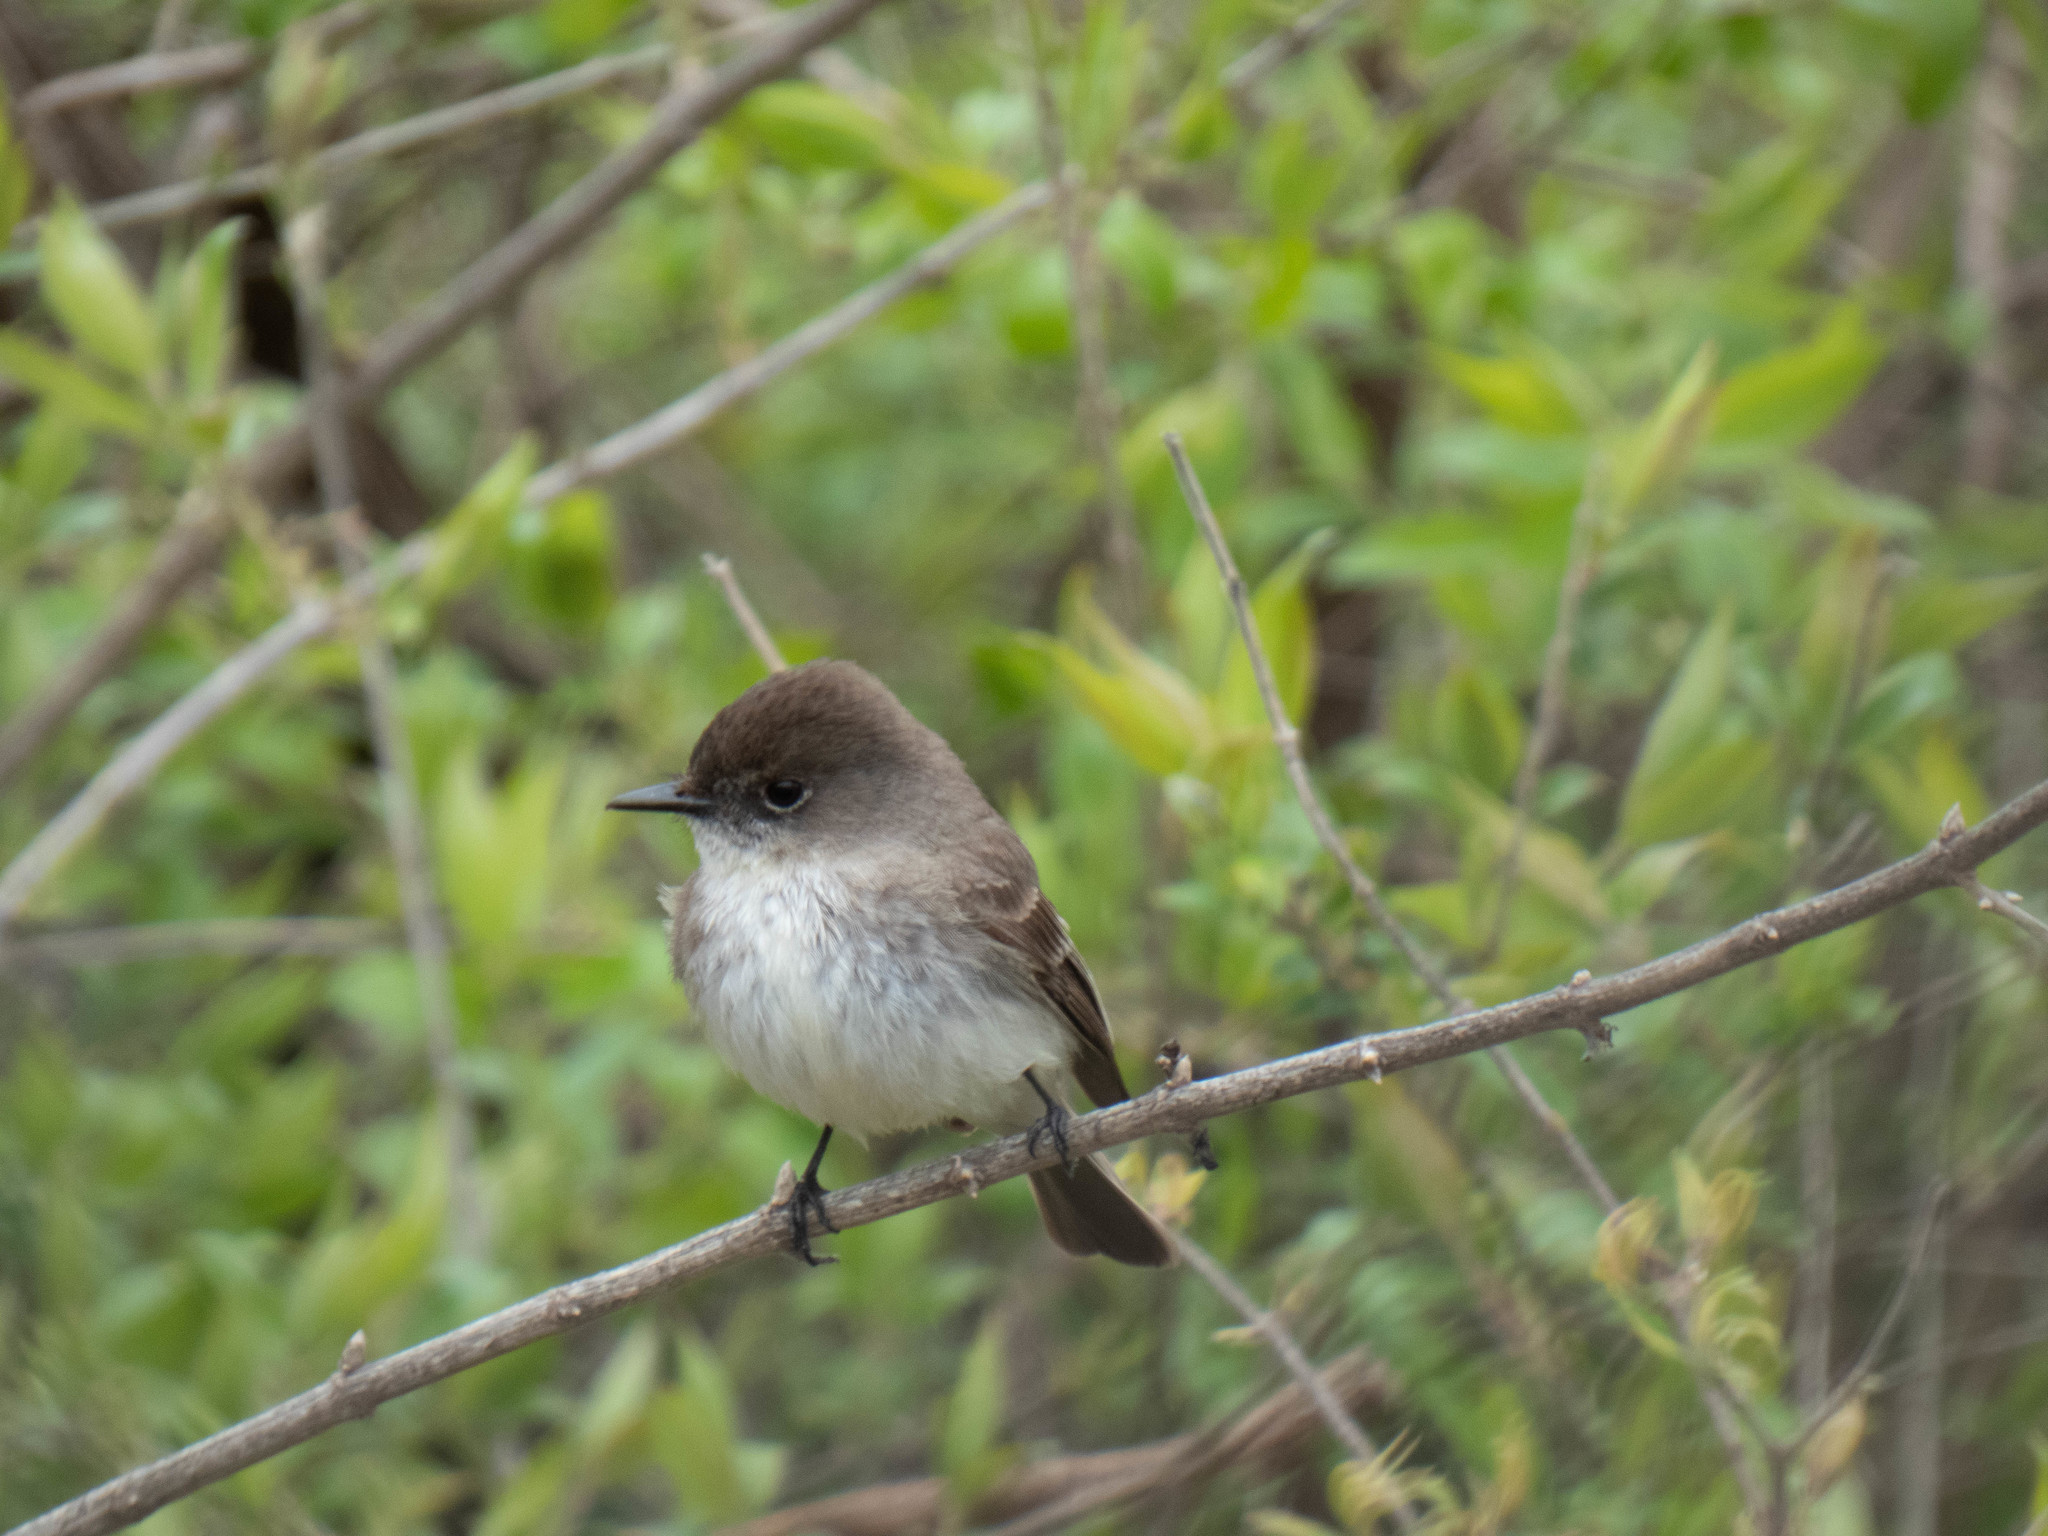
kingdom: Animalia
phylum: Chordata
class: Aves
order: Passeriformes
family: Tyrannidae
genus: Sayornis
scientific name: Sayornis phoebe
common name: Eastern phoebe
